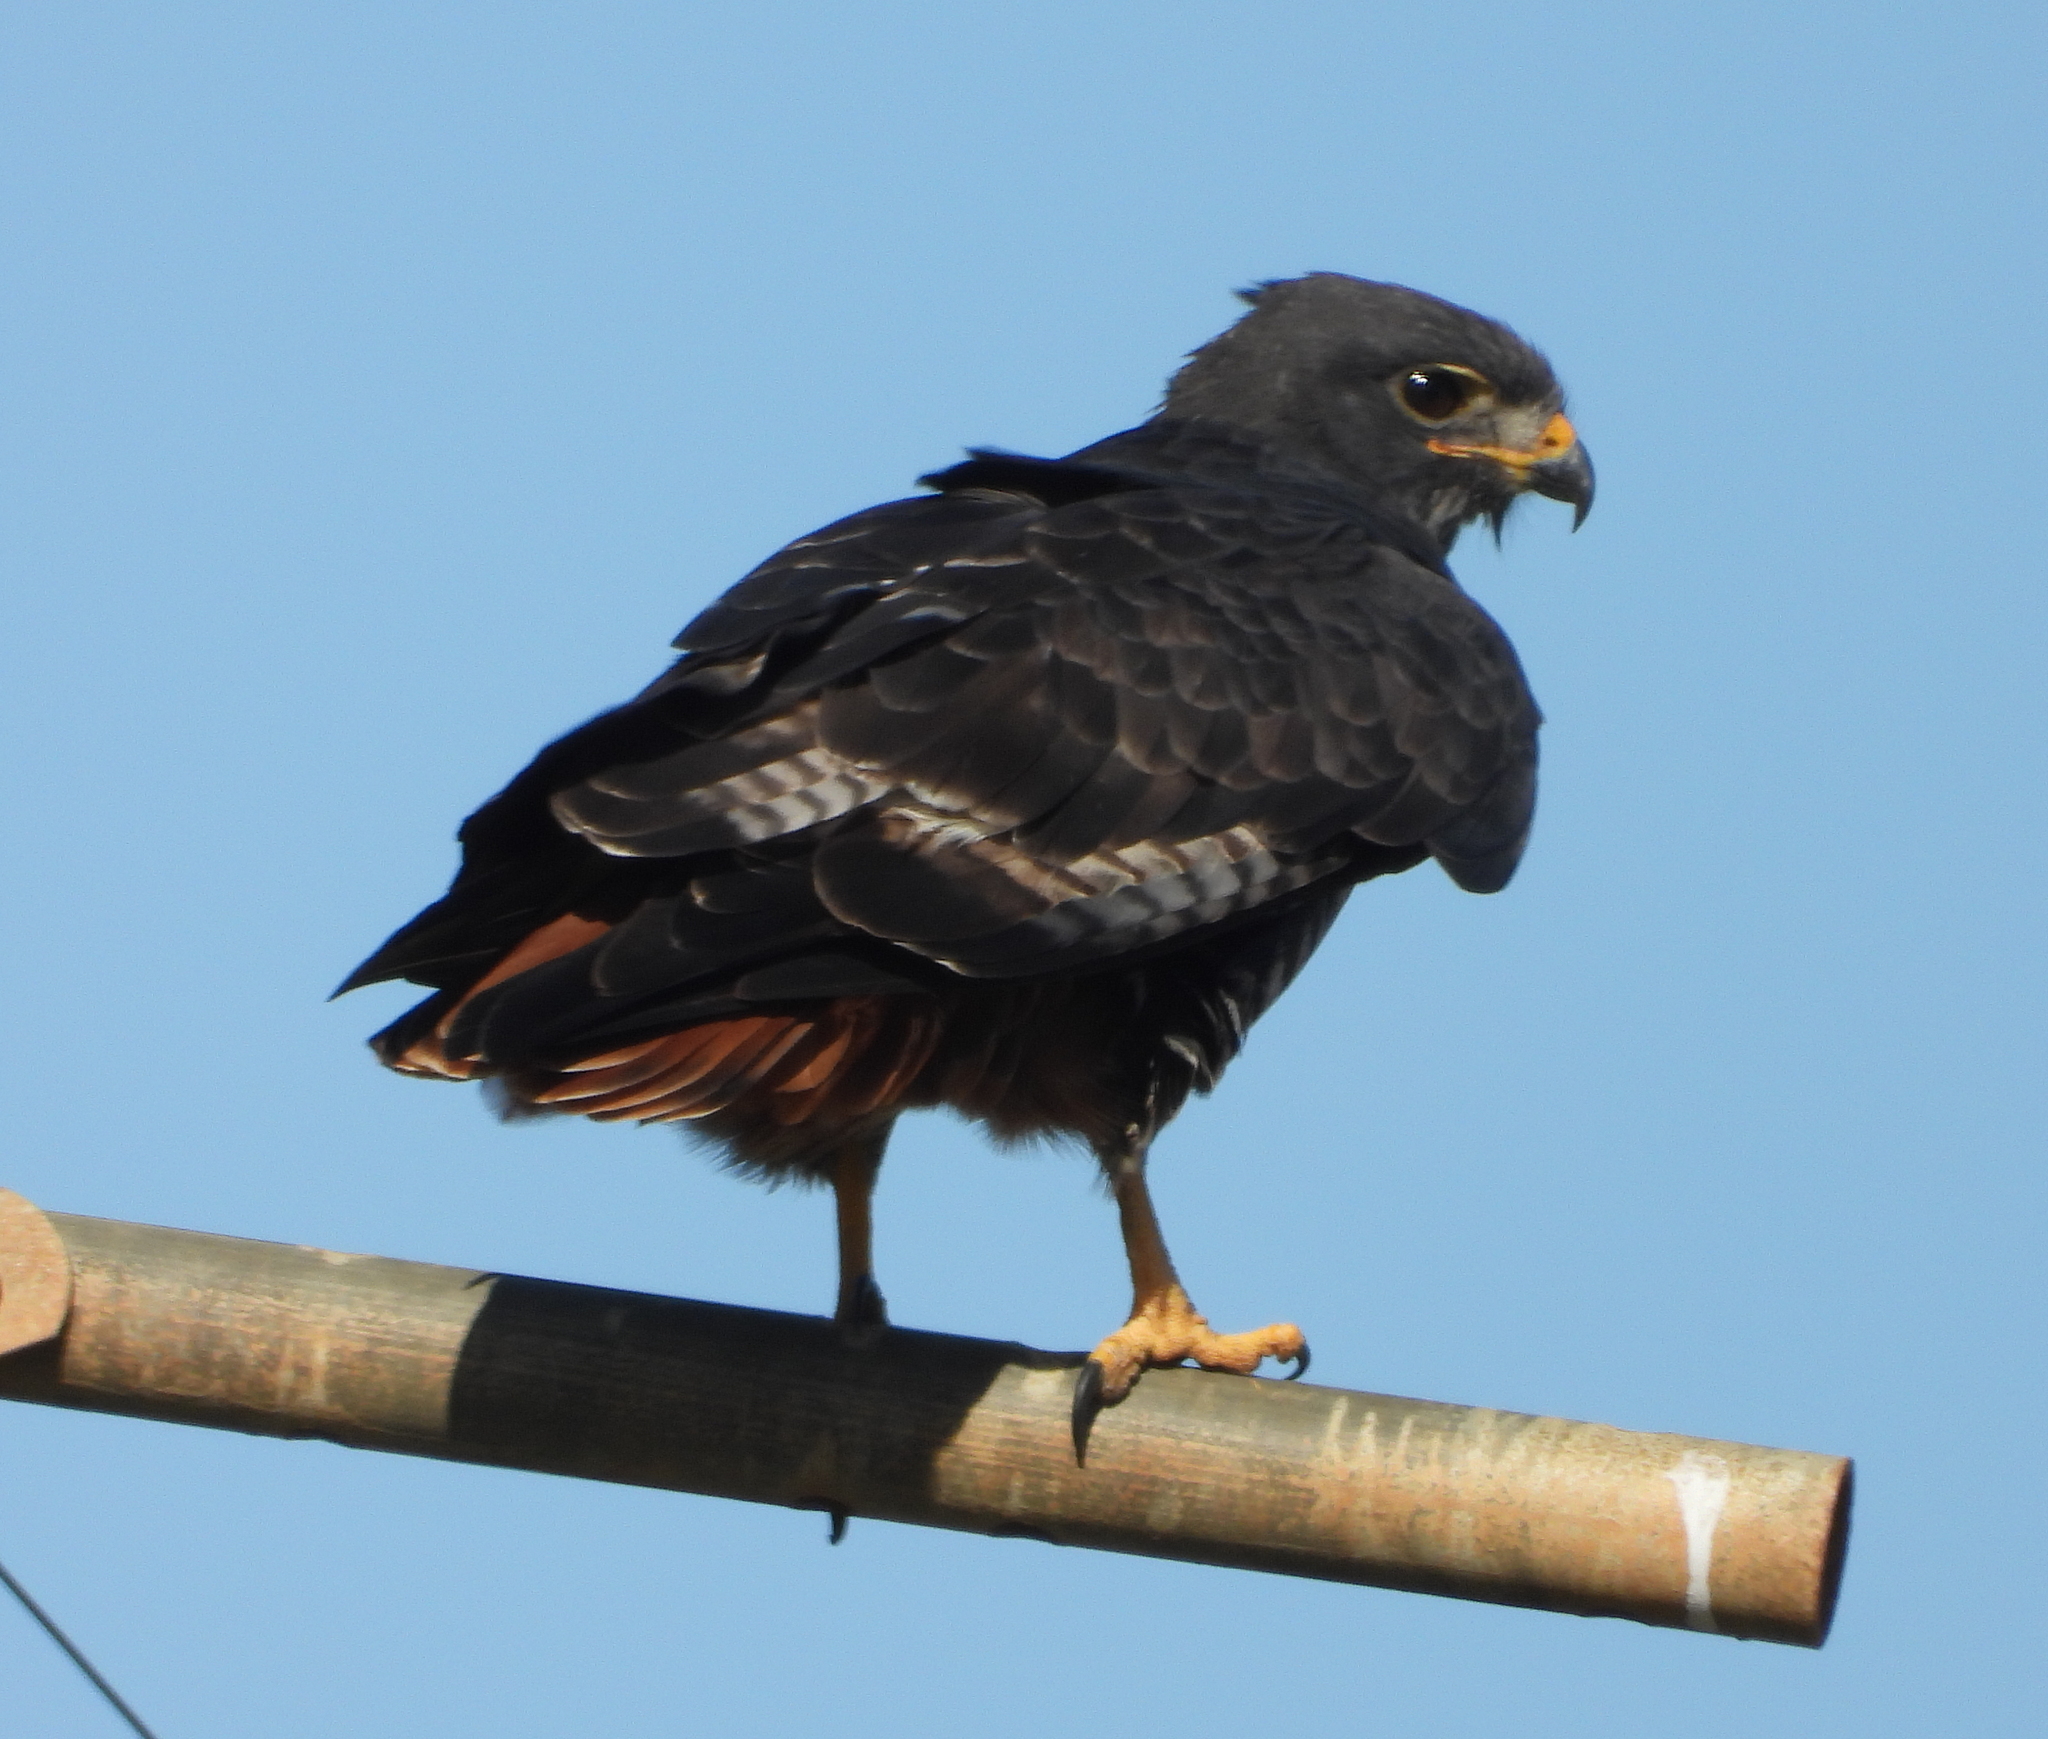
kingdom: Animalia
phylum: Chordata
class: Aves
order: Accipitriformes
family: Accipitridae
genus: Buteo
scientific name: Buteo rufofuscus
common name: Jackal buzzard
